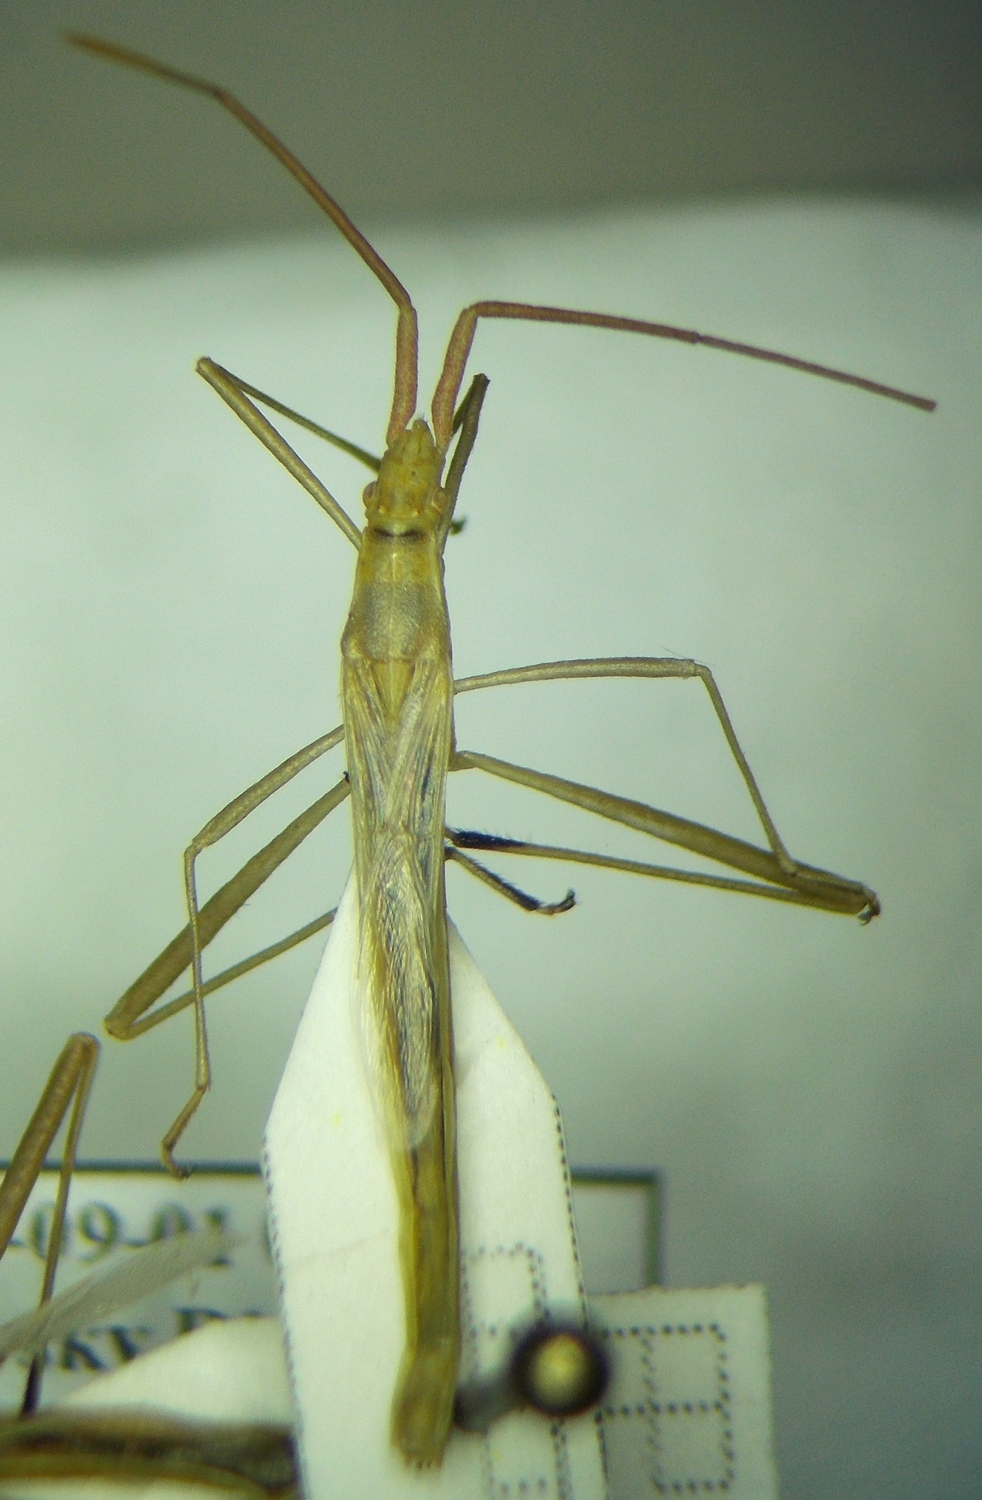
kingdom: Animalia
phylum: Arthropoda
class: Insecta
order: Hemiptera
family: Rhopalidae
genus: Chorosoma
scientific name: Chorosoma schillingii
